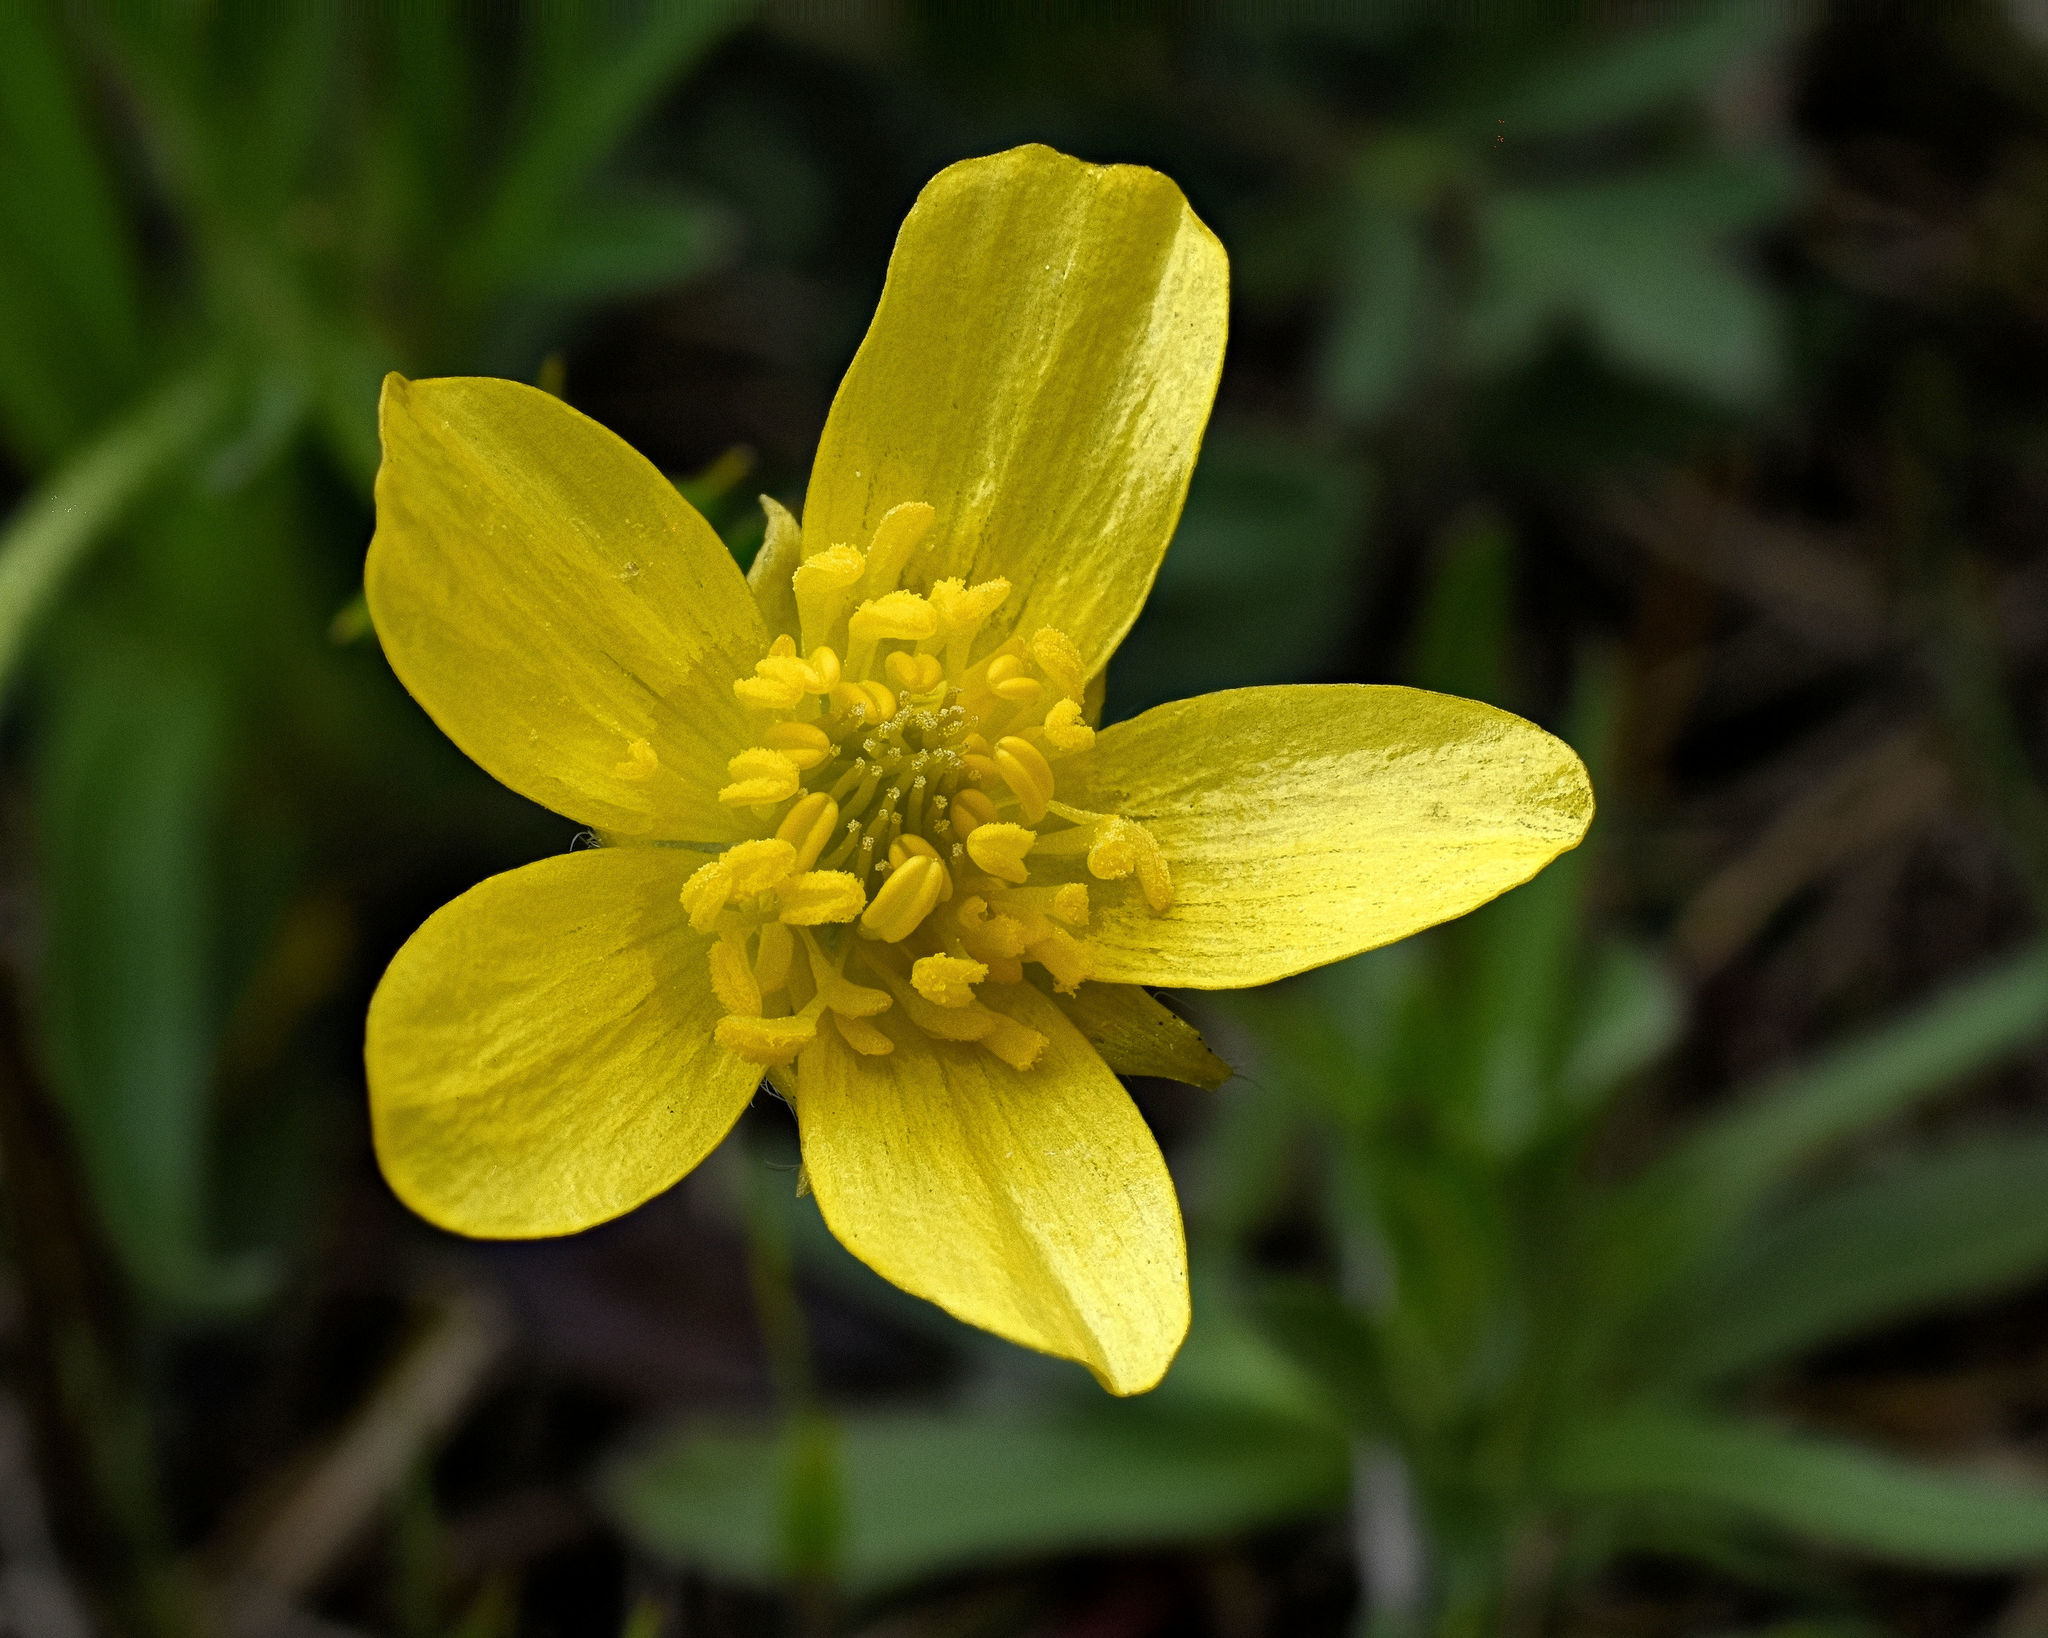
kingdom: Plantae
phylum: Tracheophyta
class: Magnoliopsida
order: Ranunculales
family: Ranunculaceae
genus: Ranunculus
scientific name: Ranunculus fascicularis
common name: Early buttercup
